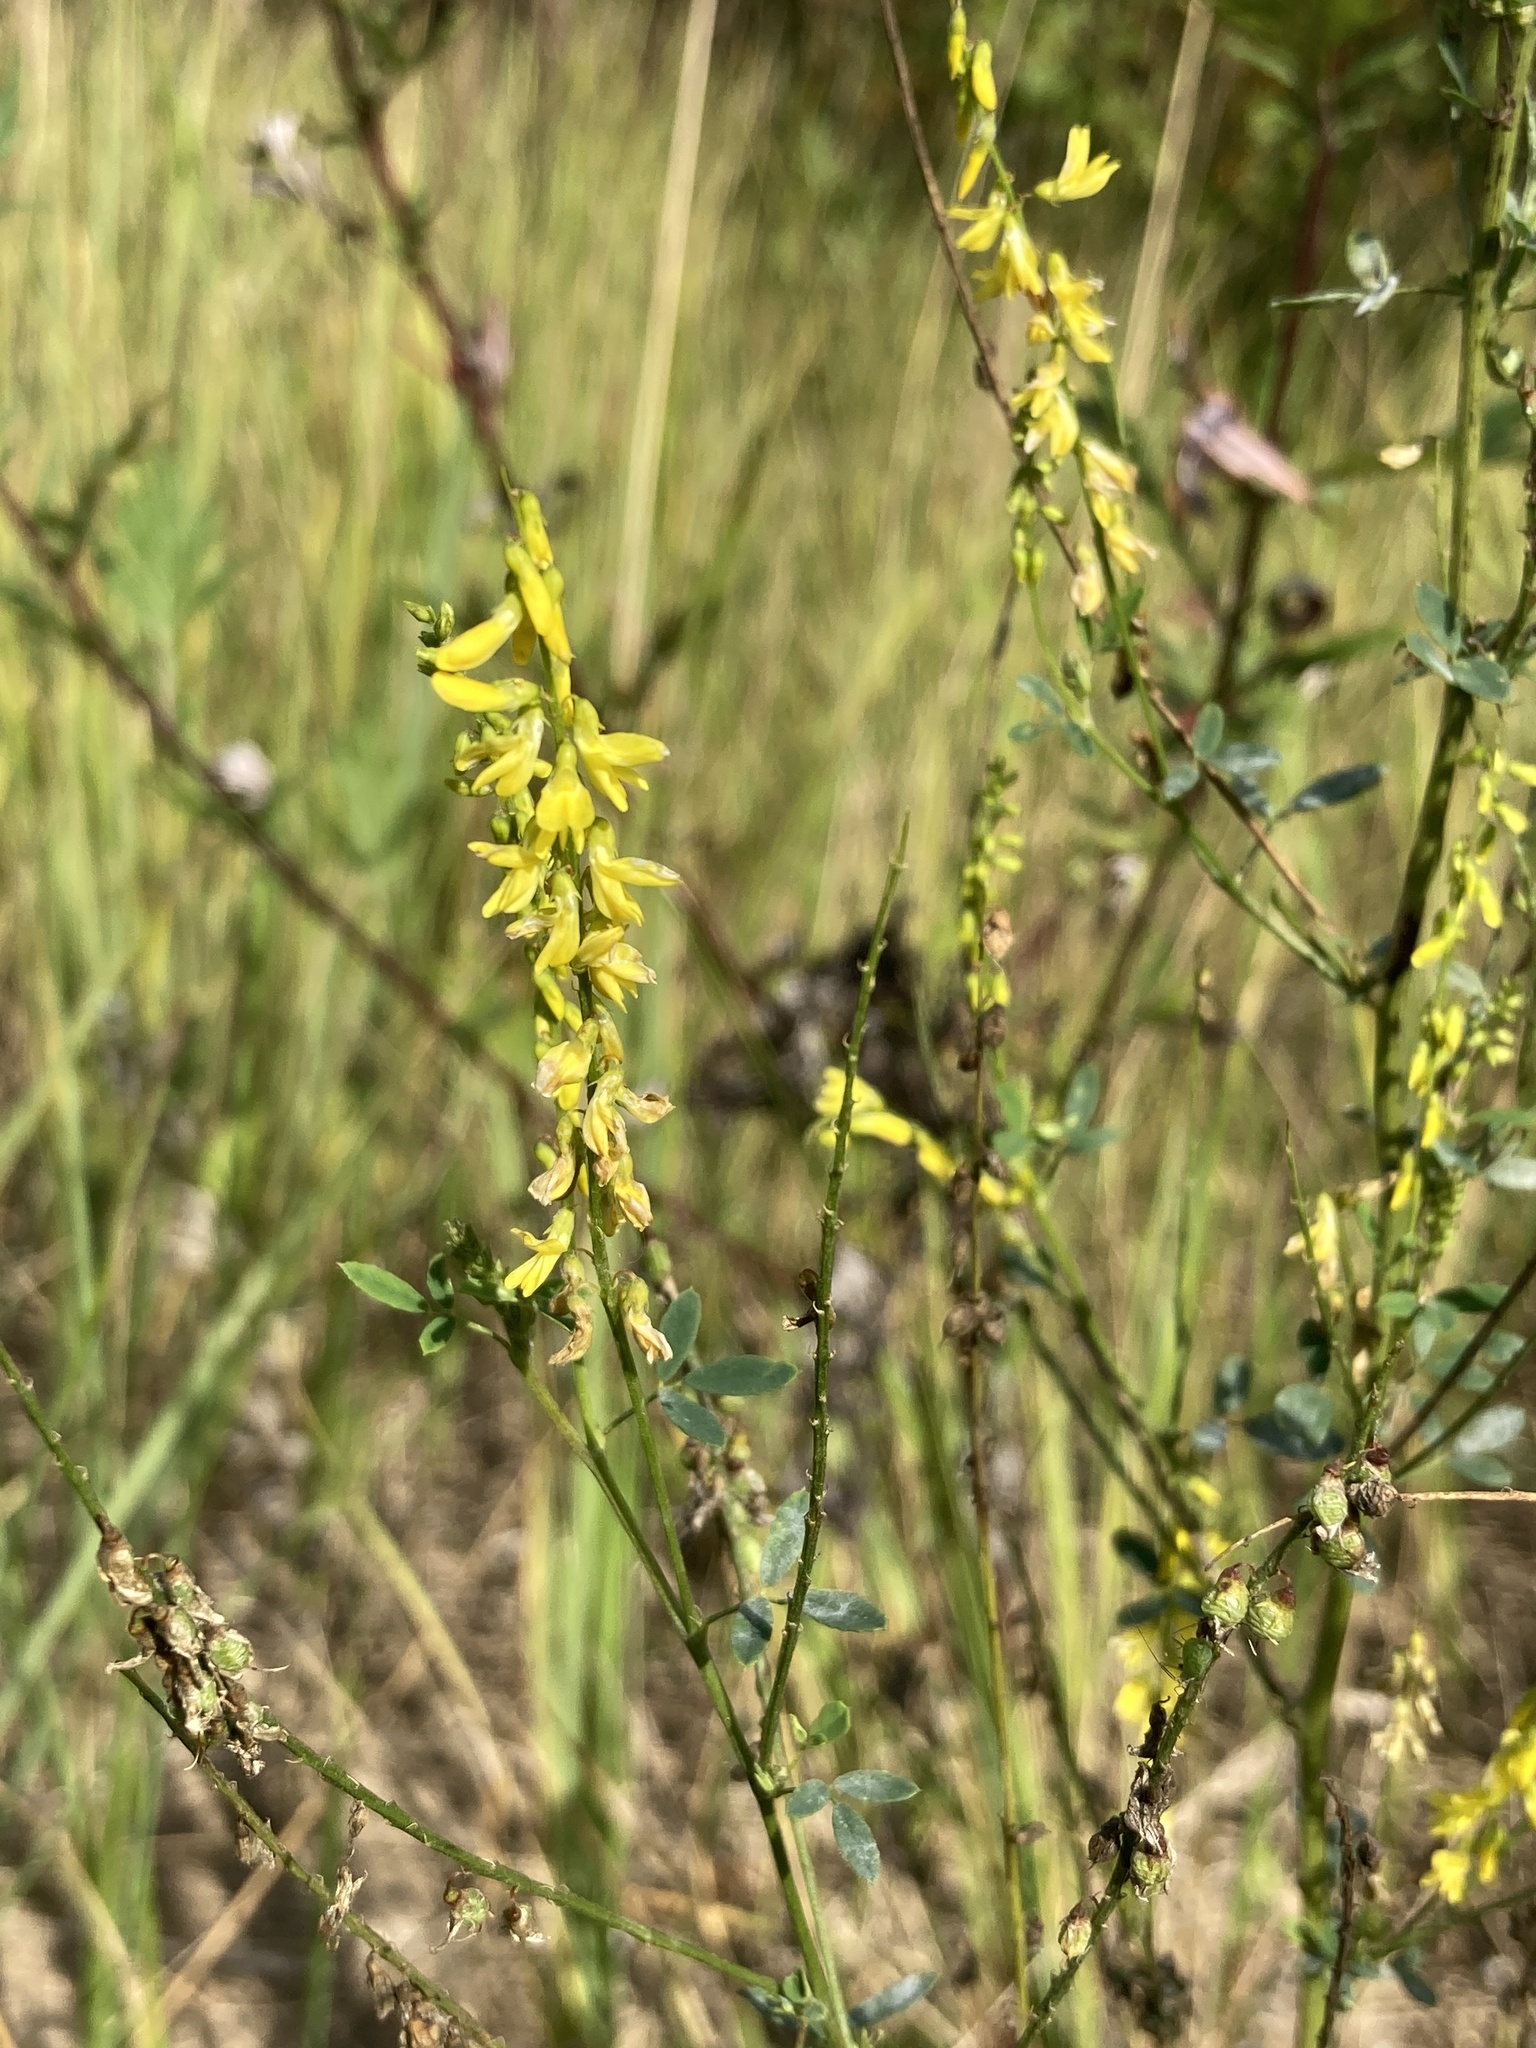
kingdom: Plantae
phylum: Tracheophyta
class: Magnoliopsida
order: Fabales
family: Fabaceae
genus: Melilotus
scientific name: Melilotus officinalis
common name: Sweetclover
